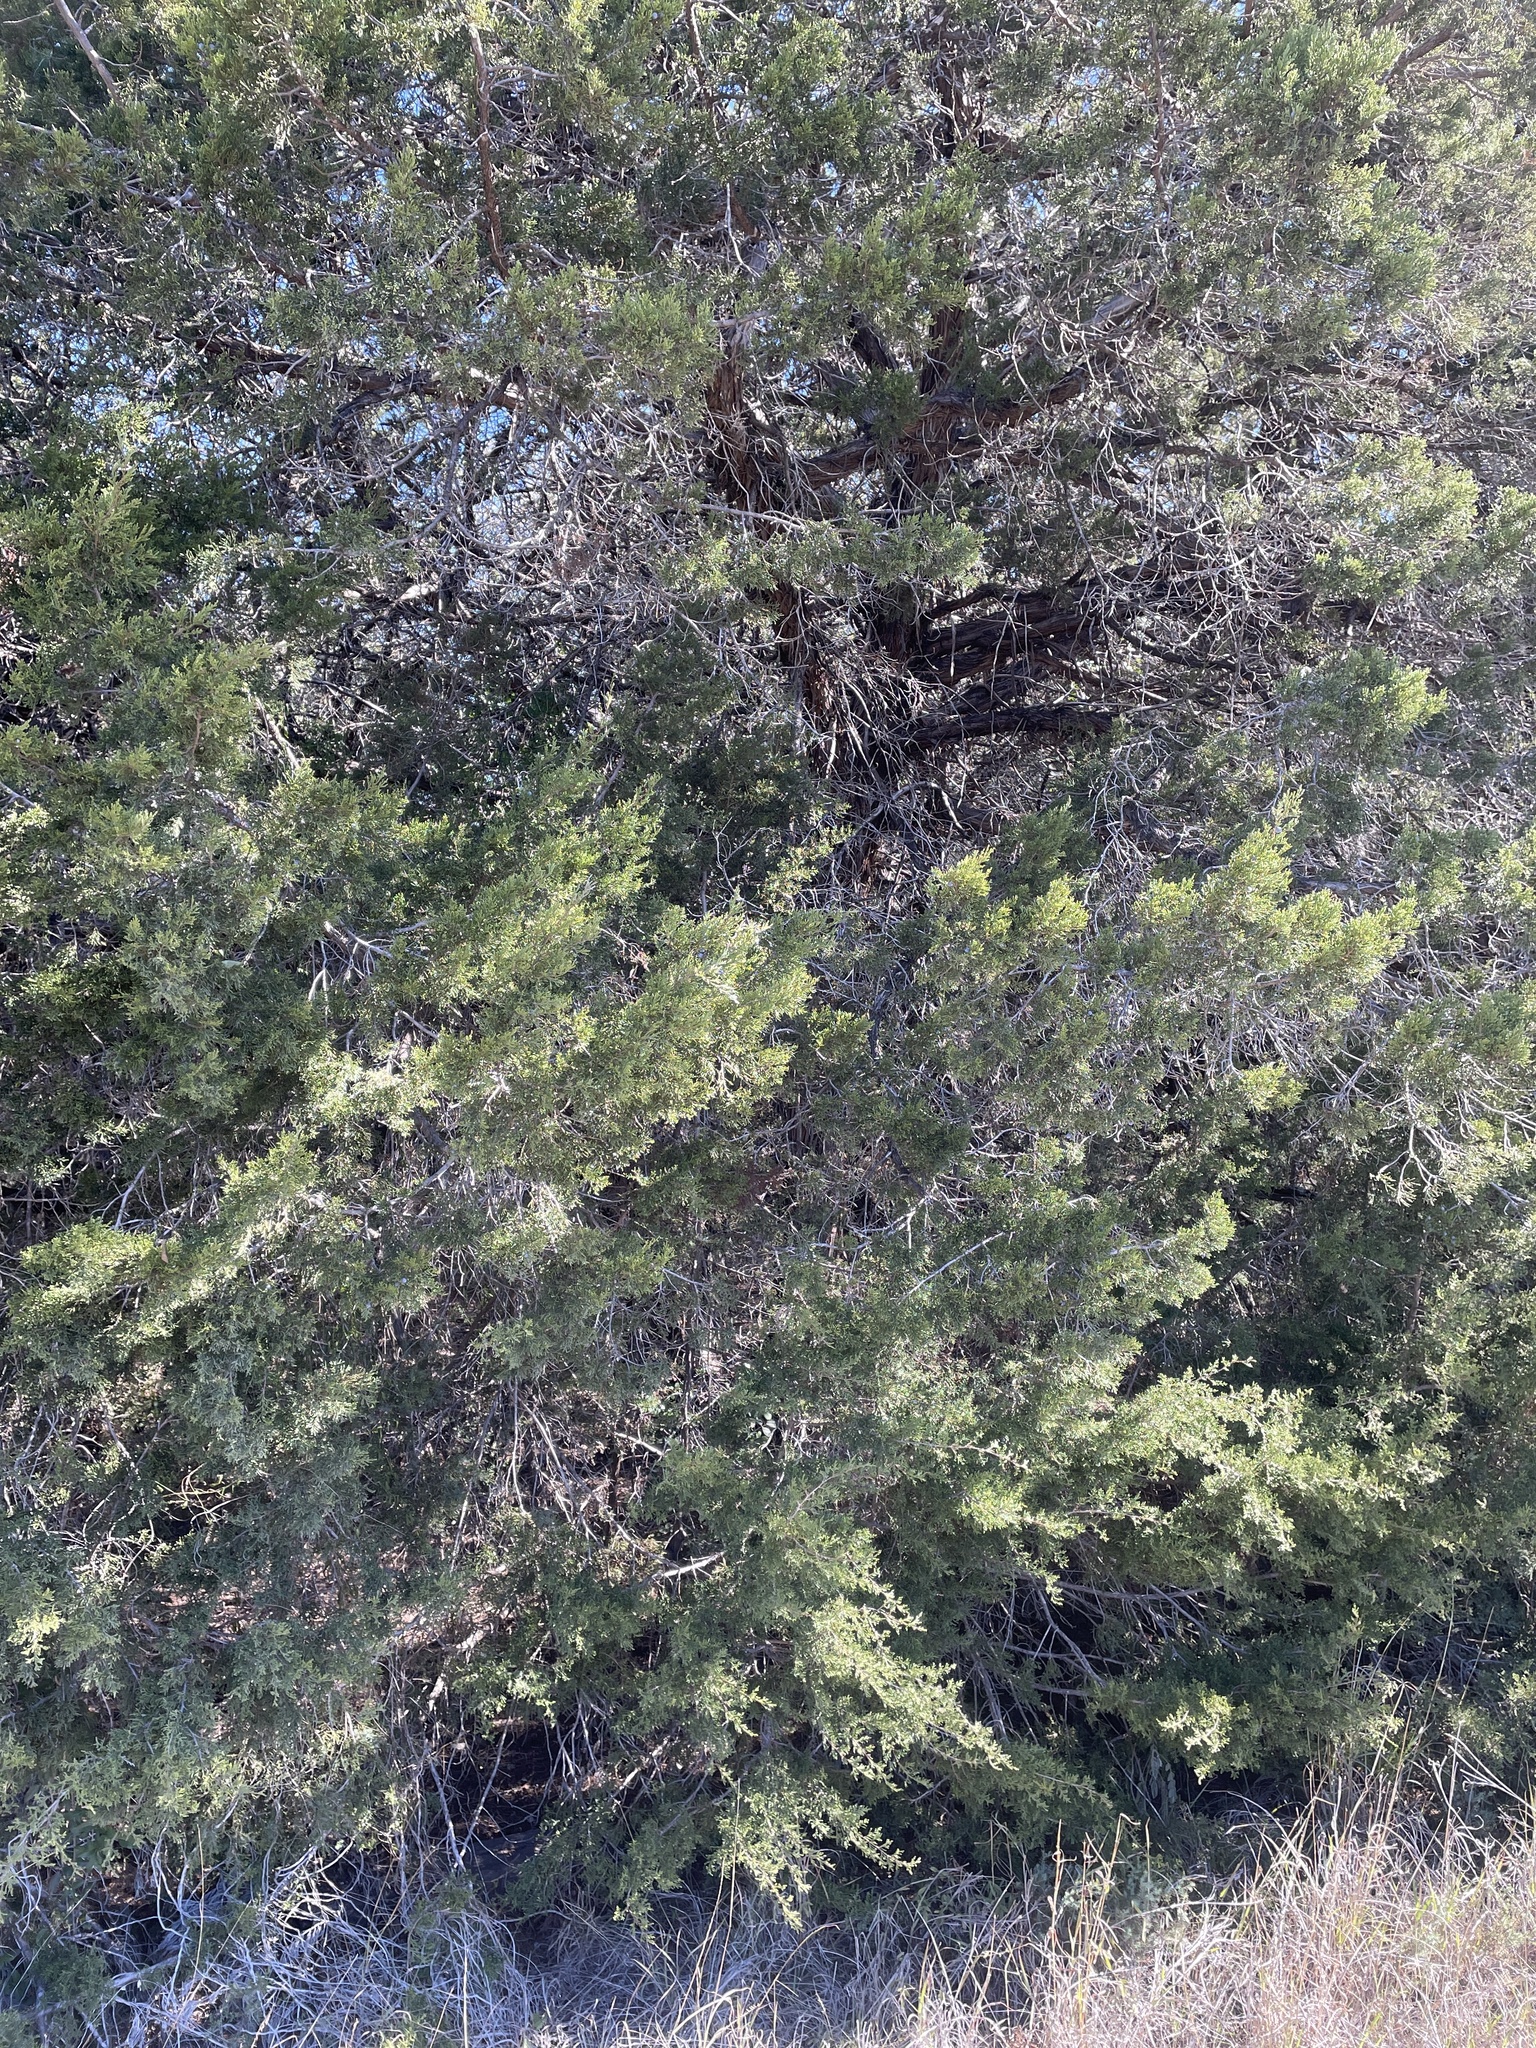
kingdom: Plantae
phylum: Tracheophyta
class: Pinopsida
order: Pinales
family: Cupressaceae
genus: Juniperus
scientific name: Juniperus ashei
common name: Mexican juniper
